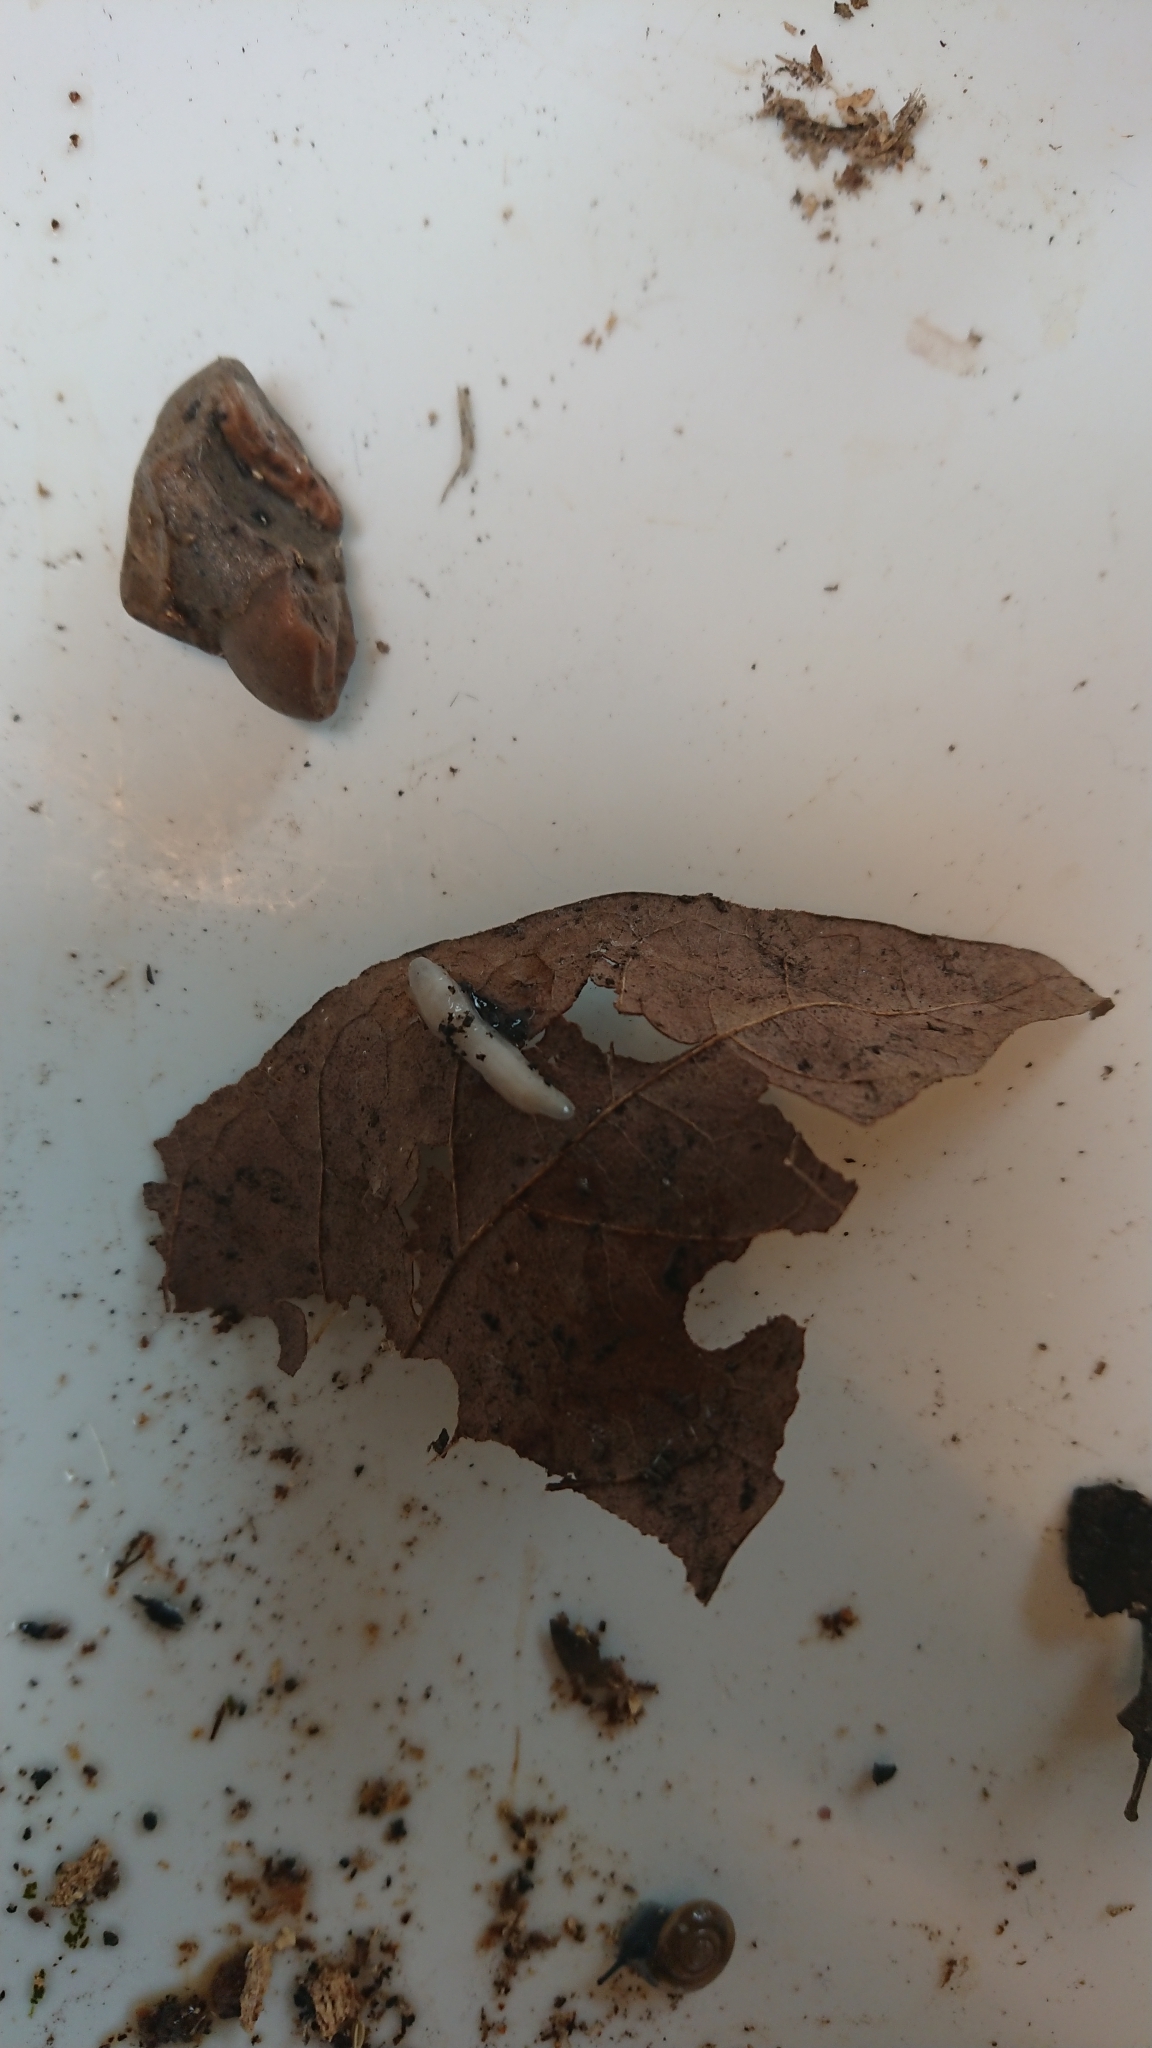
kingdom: Animalia
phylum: Mollusca
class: Gastropoda
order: Stylommatophora
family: Boettgerillidae
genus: Boettgerilla
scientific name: Boettgerilla pallens
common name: Worm slug
